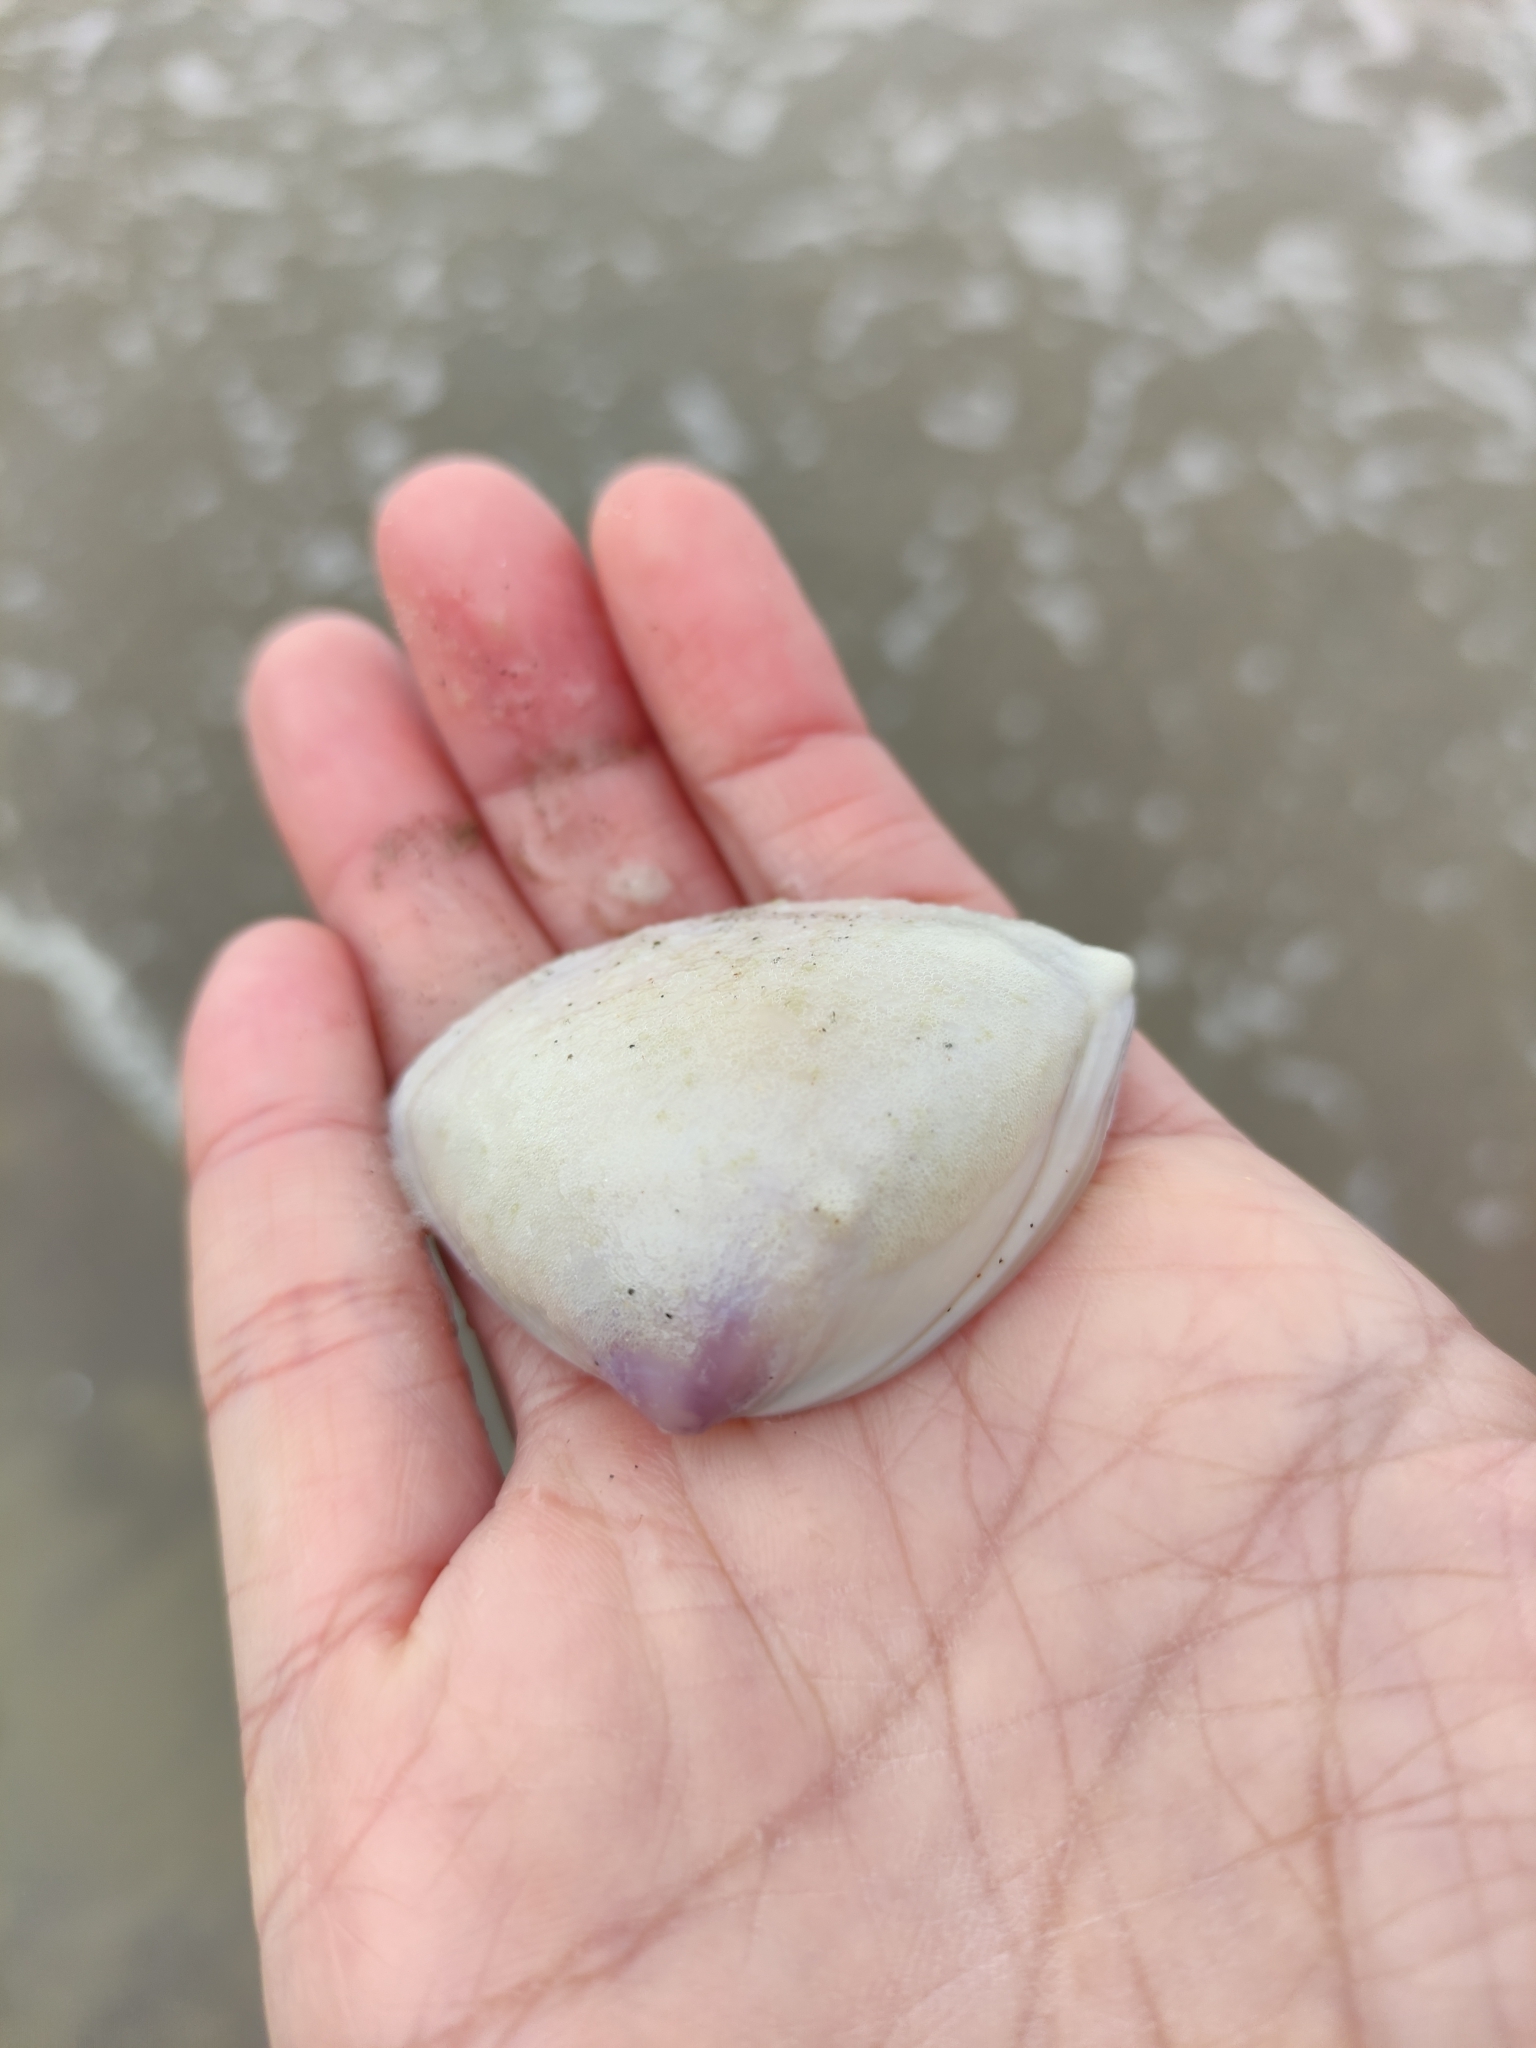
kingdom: Animalia
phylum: Mollusca
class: Bivalvia
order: Venerida
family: Mactridae
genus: Crassula
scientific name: Crassula aequilatera
